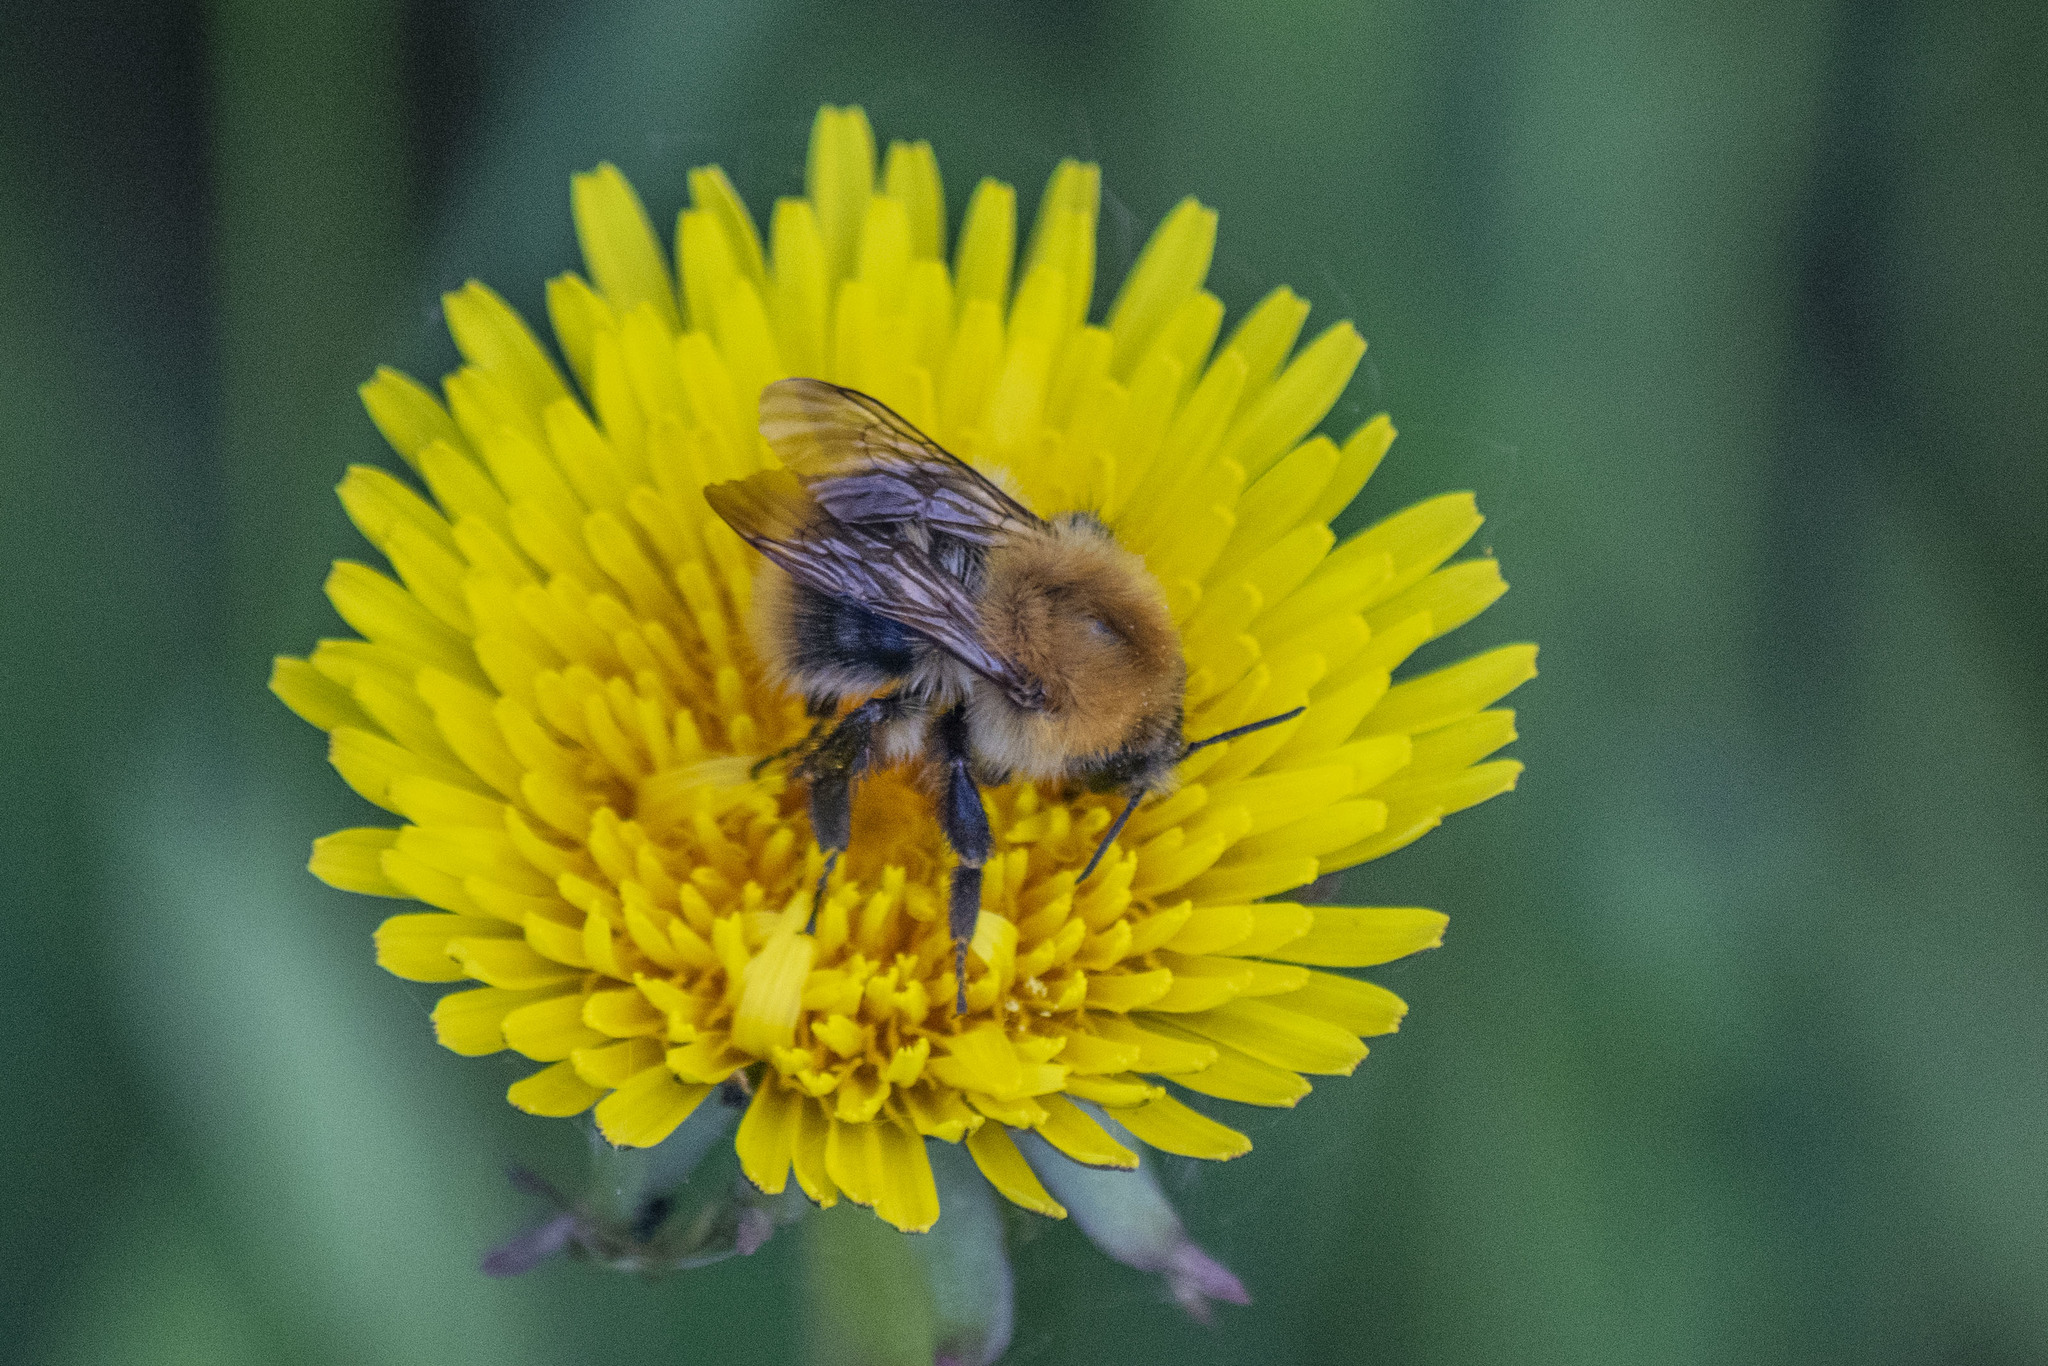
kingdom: Animalia
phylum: Arthropoda
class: Insecta
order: Hymenoptera
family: Apidae
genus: Bombus
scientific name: Bombus pascuorum
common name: Common carder bee
